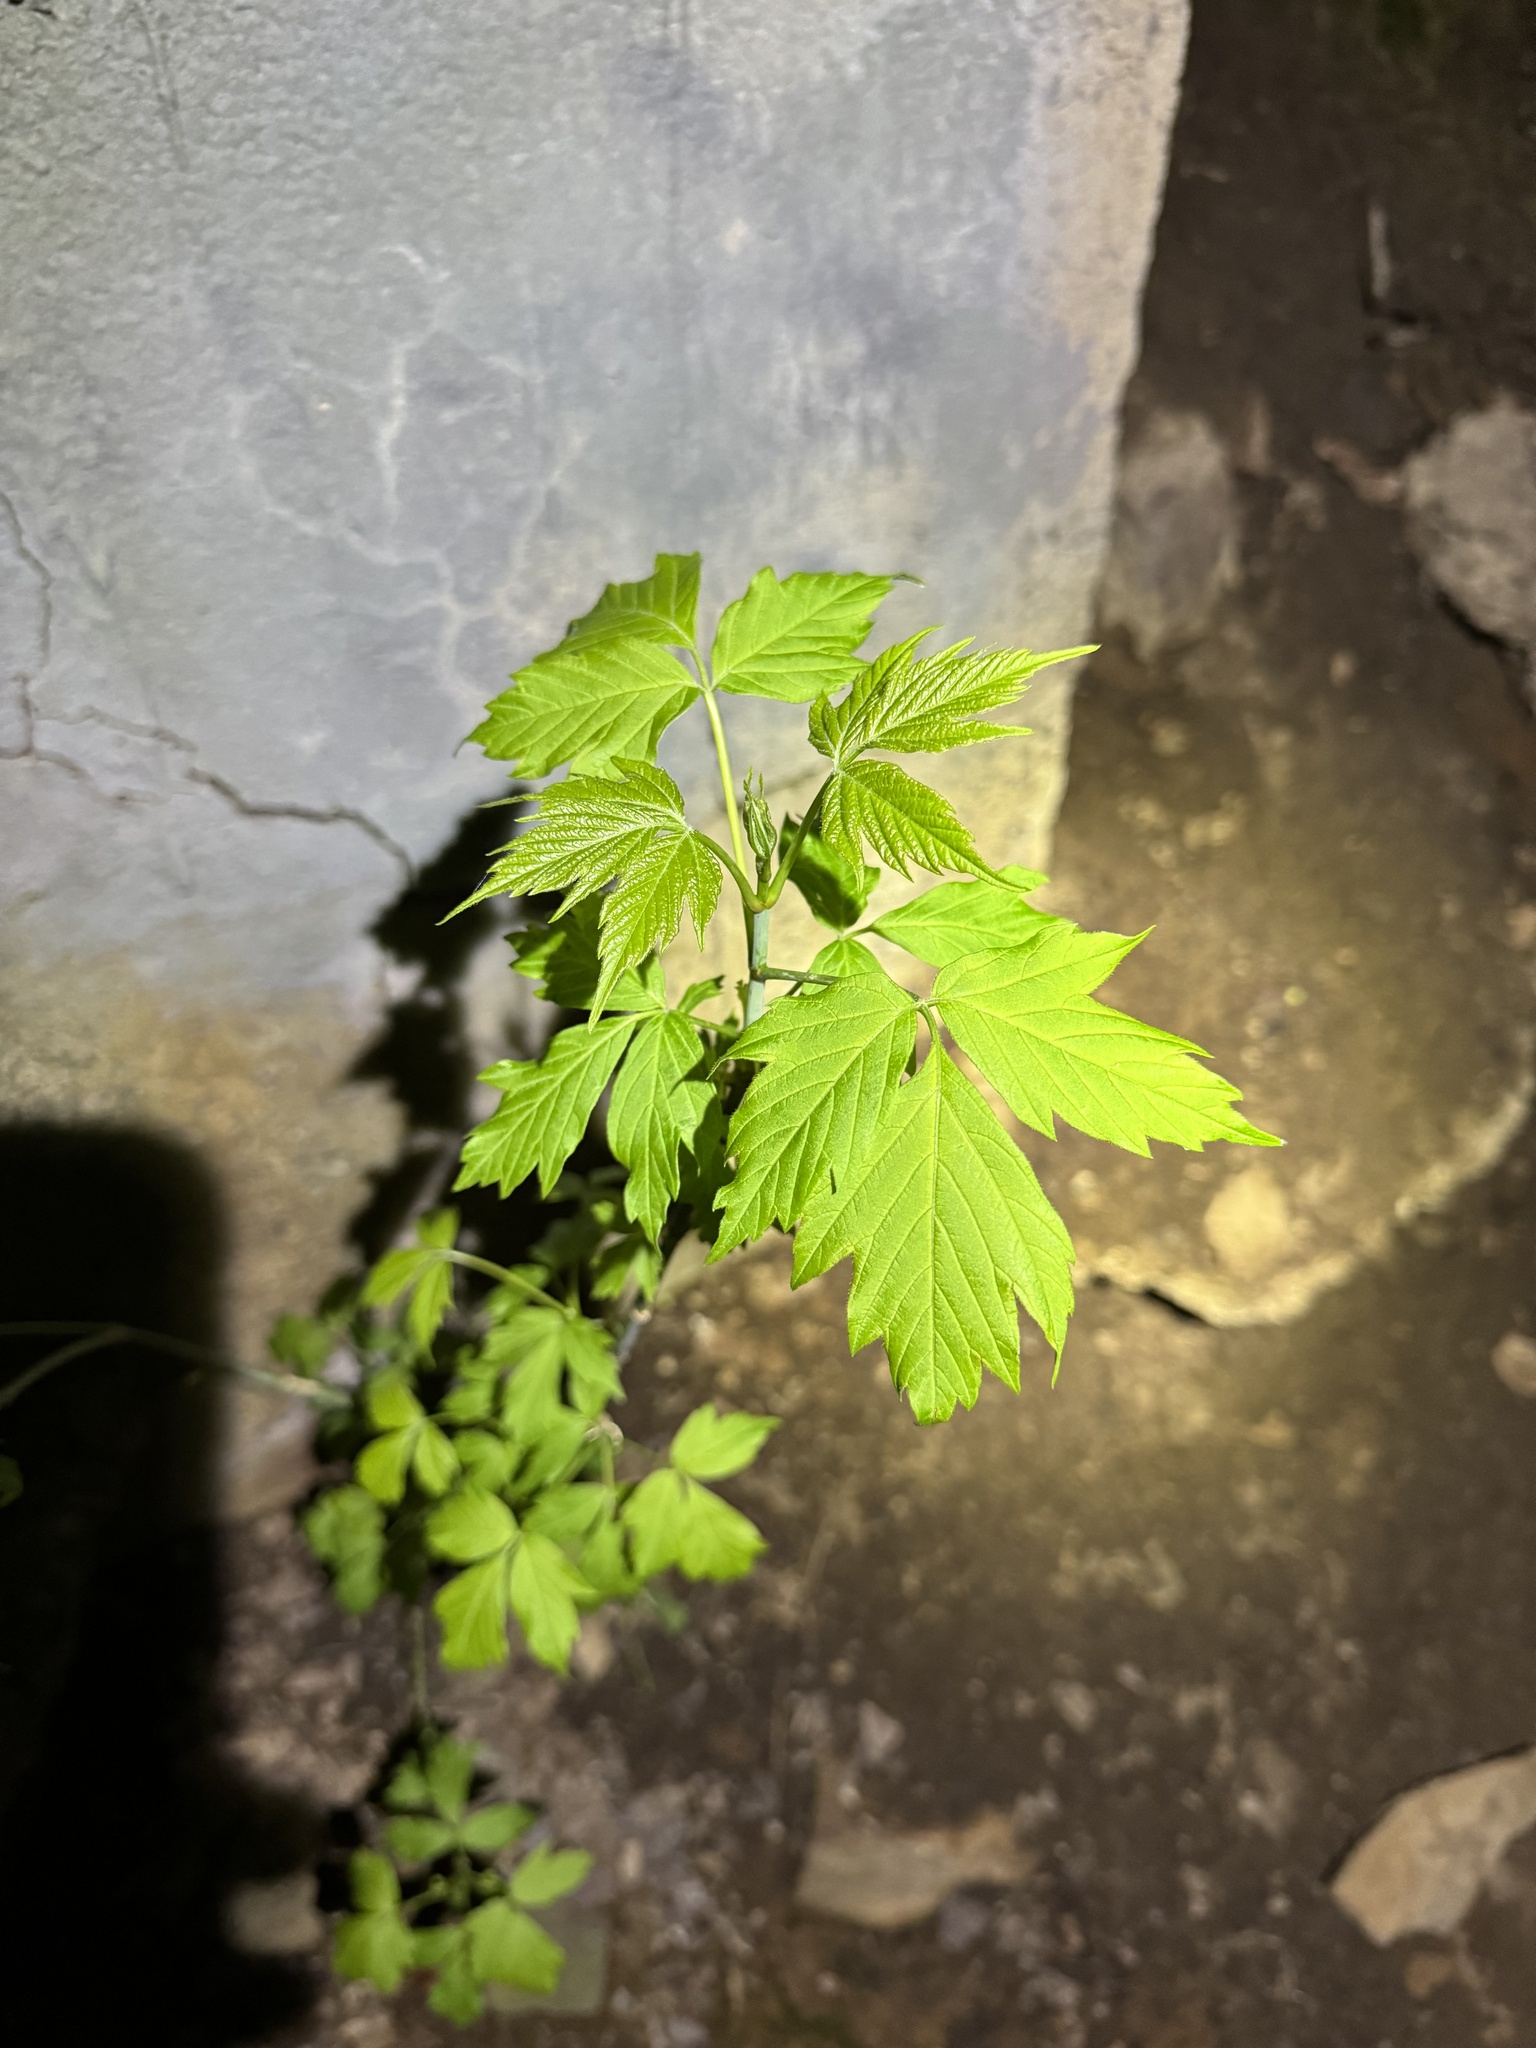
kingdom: Plantae
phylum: Tracheophyta
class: Magnoliopsida
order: Sapindales
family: Sapindaceae
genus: Acer
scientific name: Acer negundo
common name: Ashleaf maple
